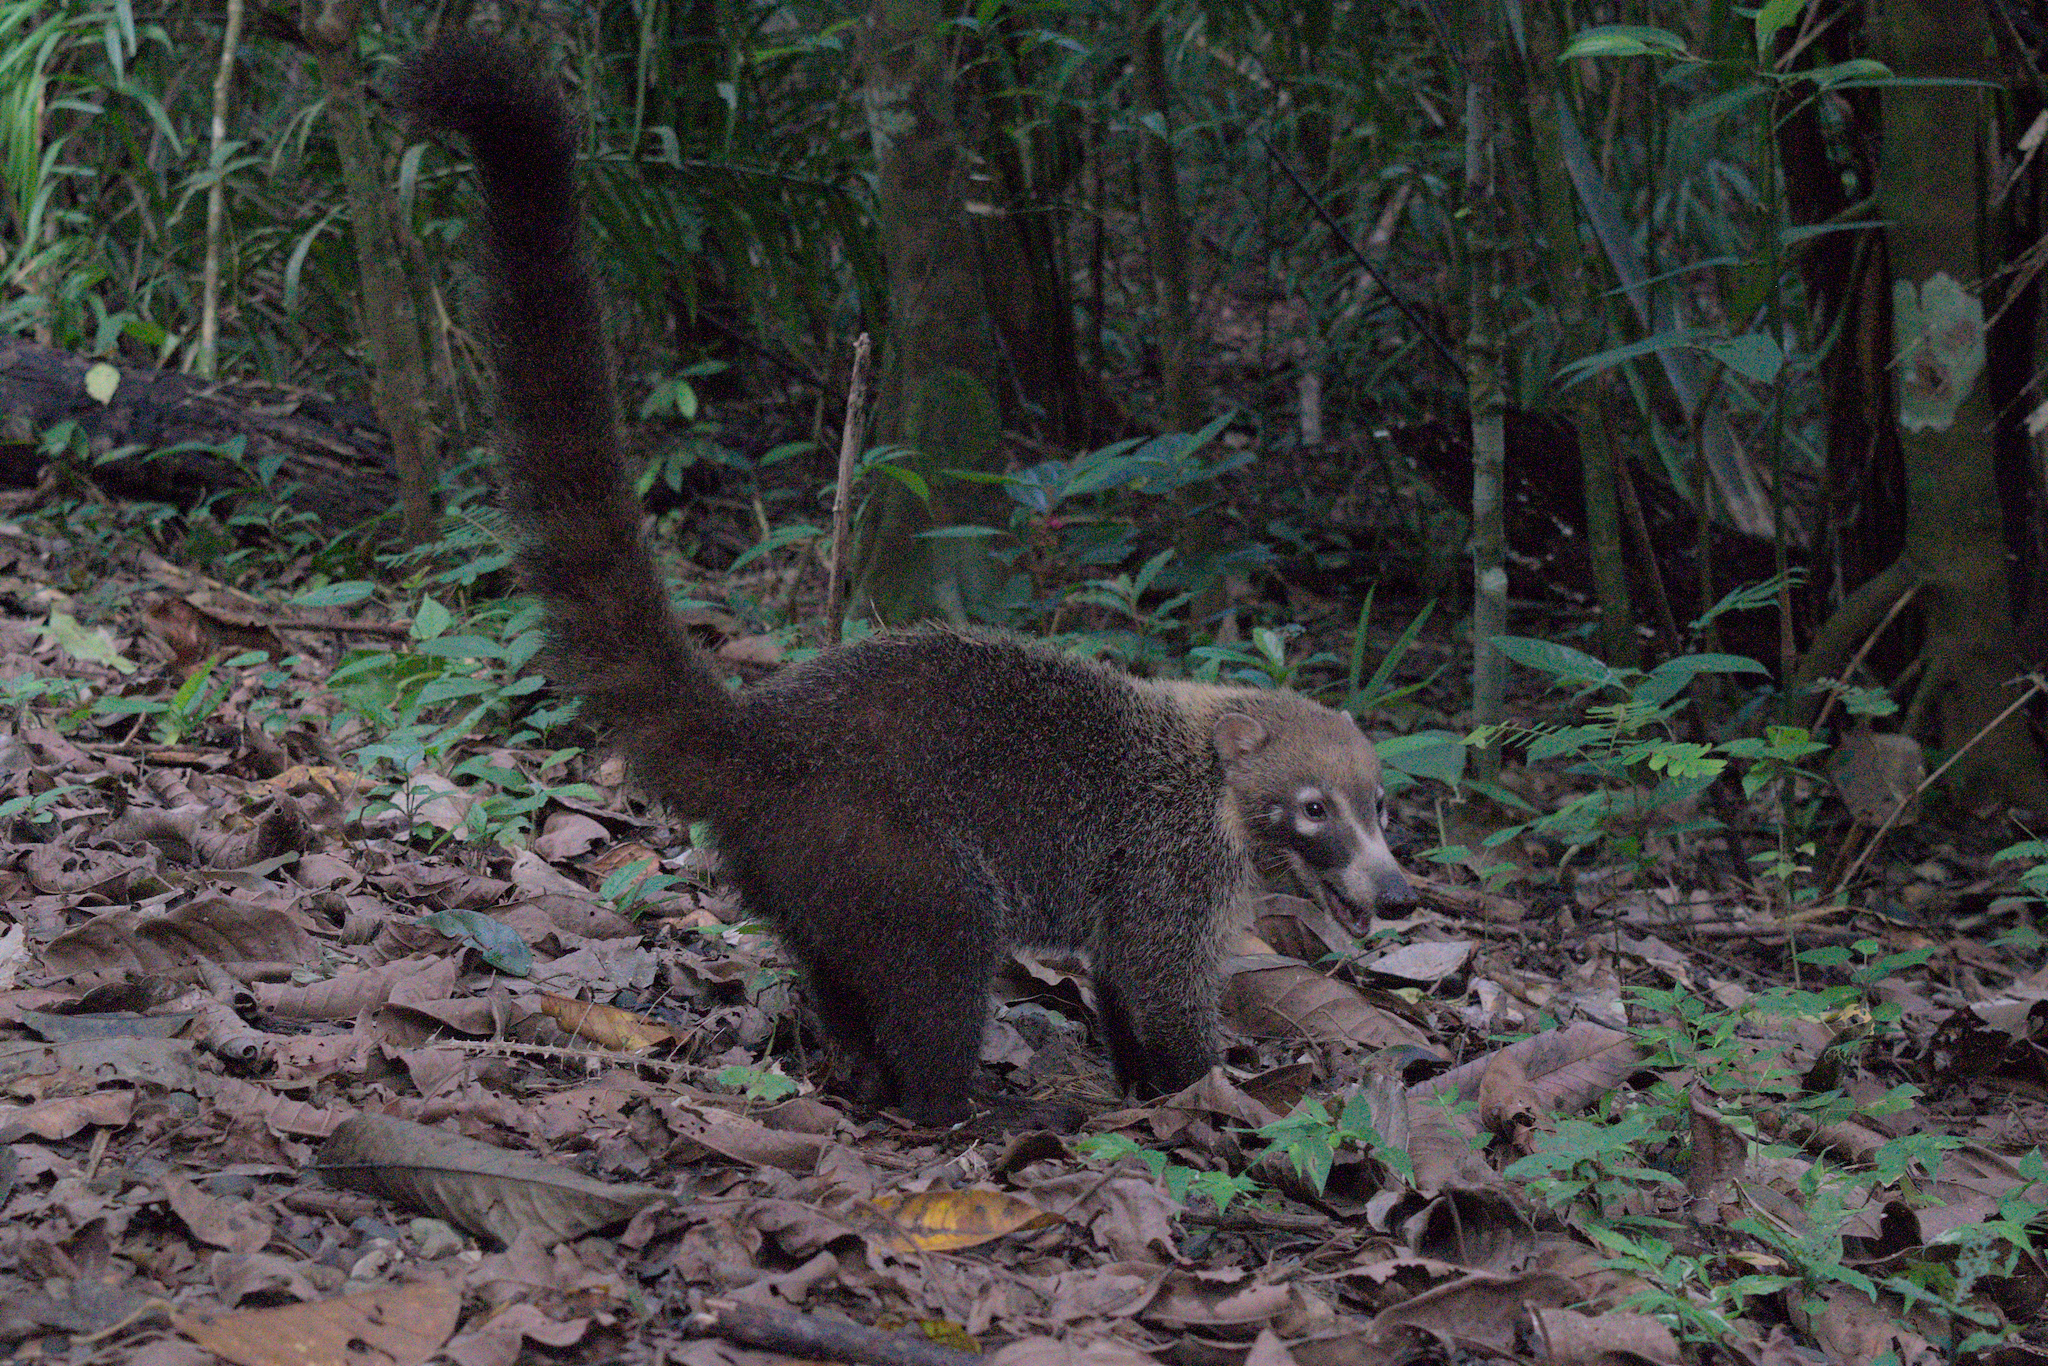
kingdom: Animalia
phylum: Chordata
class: Mammalia
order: Carnivora
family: Procyonidae
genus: Nasua
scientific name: Nasua narica
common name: White-nosed coati
